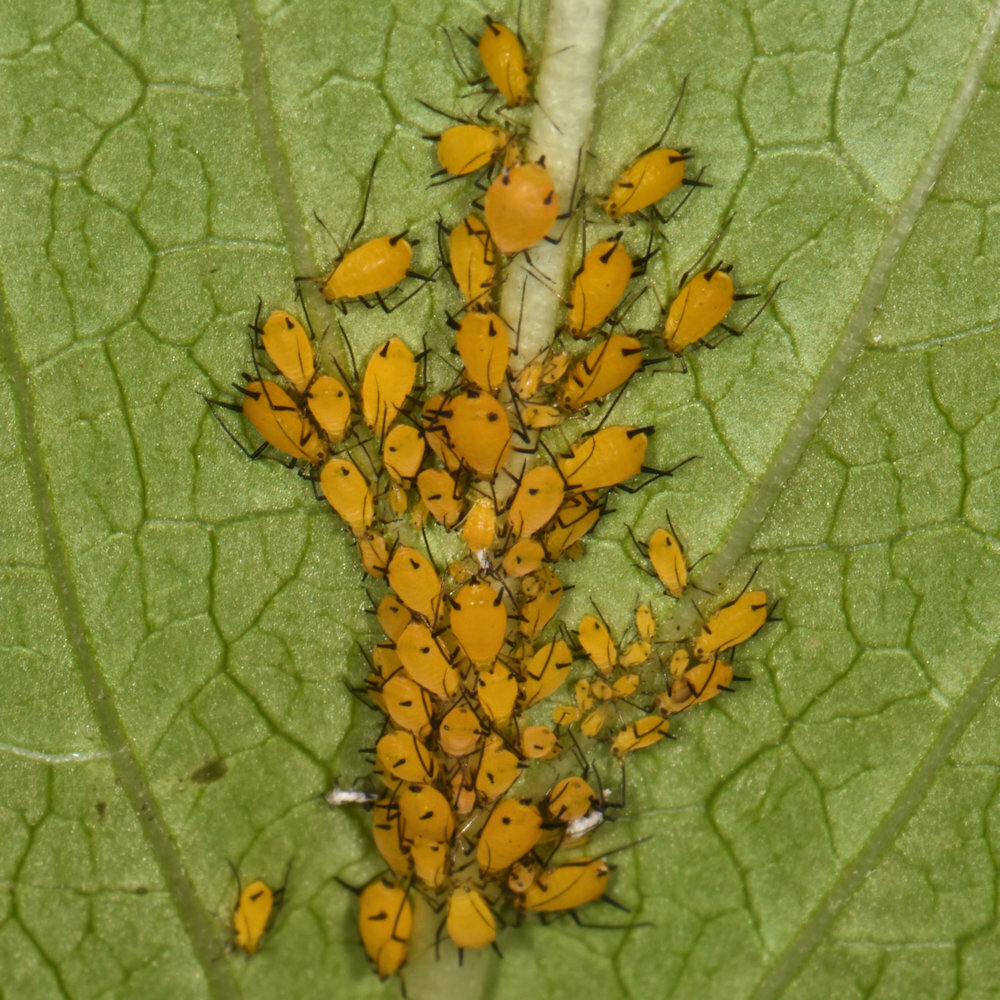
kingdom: Animalia
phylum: Arthropoda
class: Insecta
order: Hemiptera
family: Aphididae
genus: Aphis
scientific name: Aphis nerii
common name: Oleander aphid
